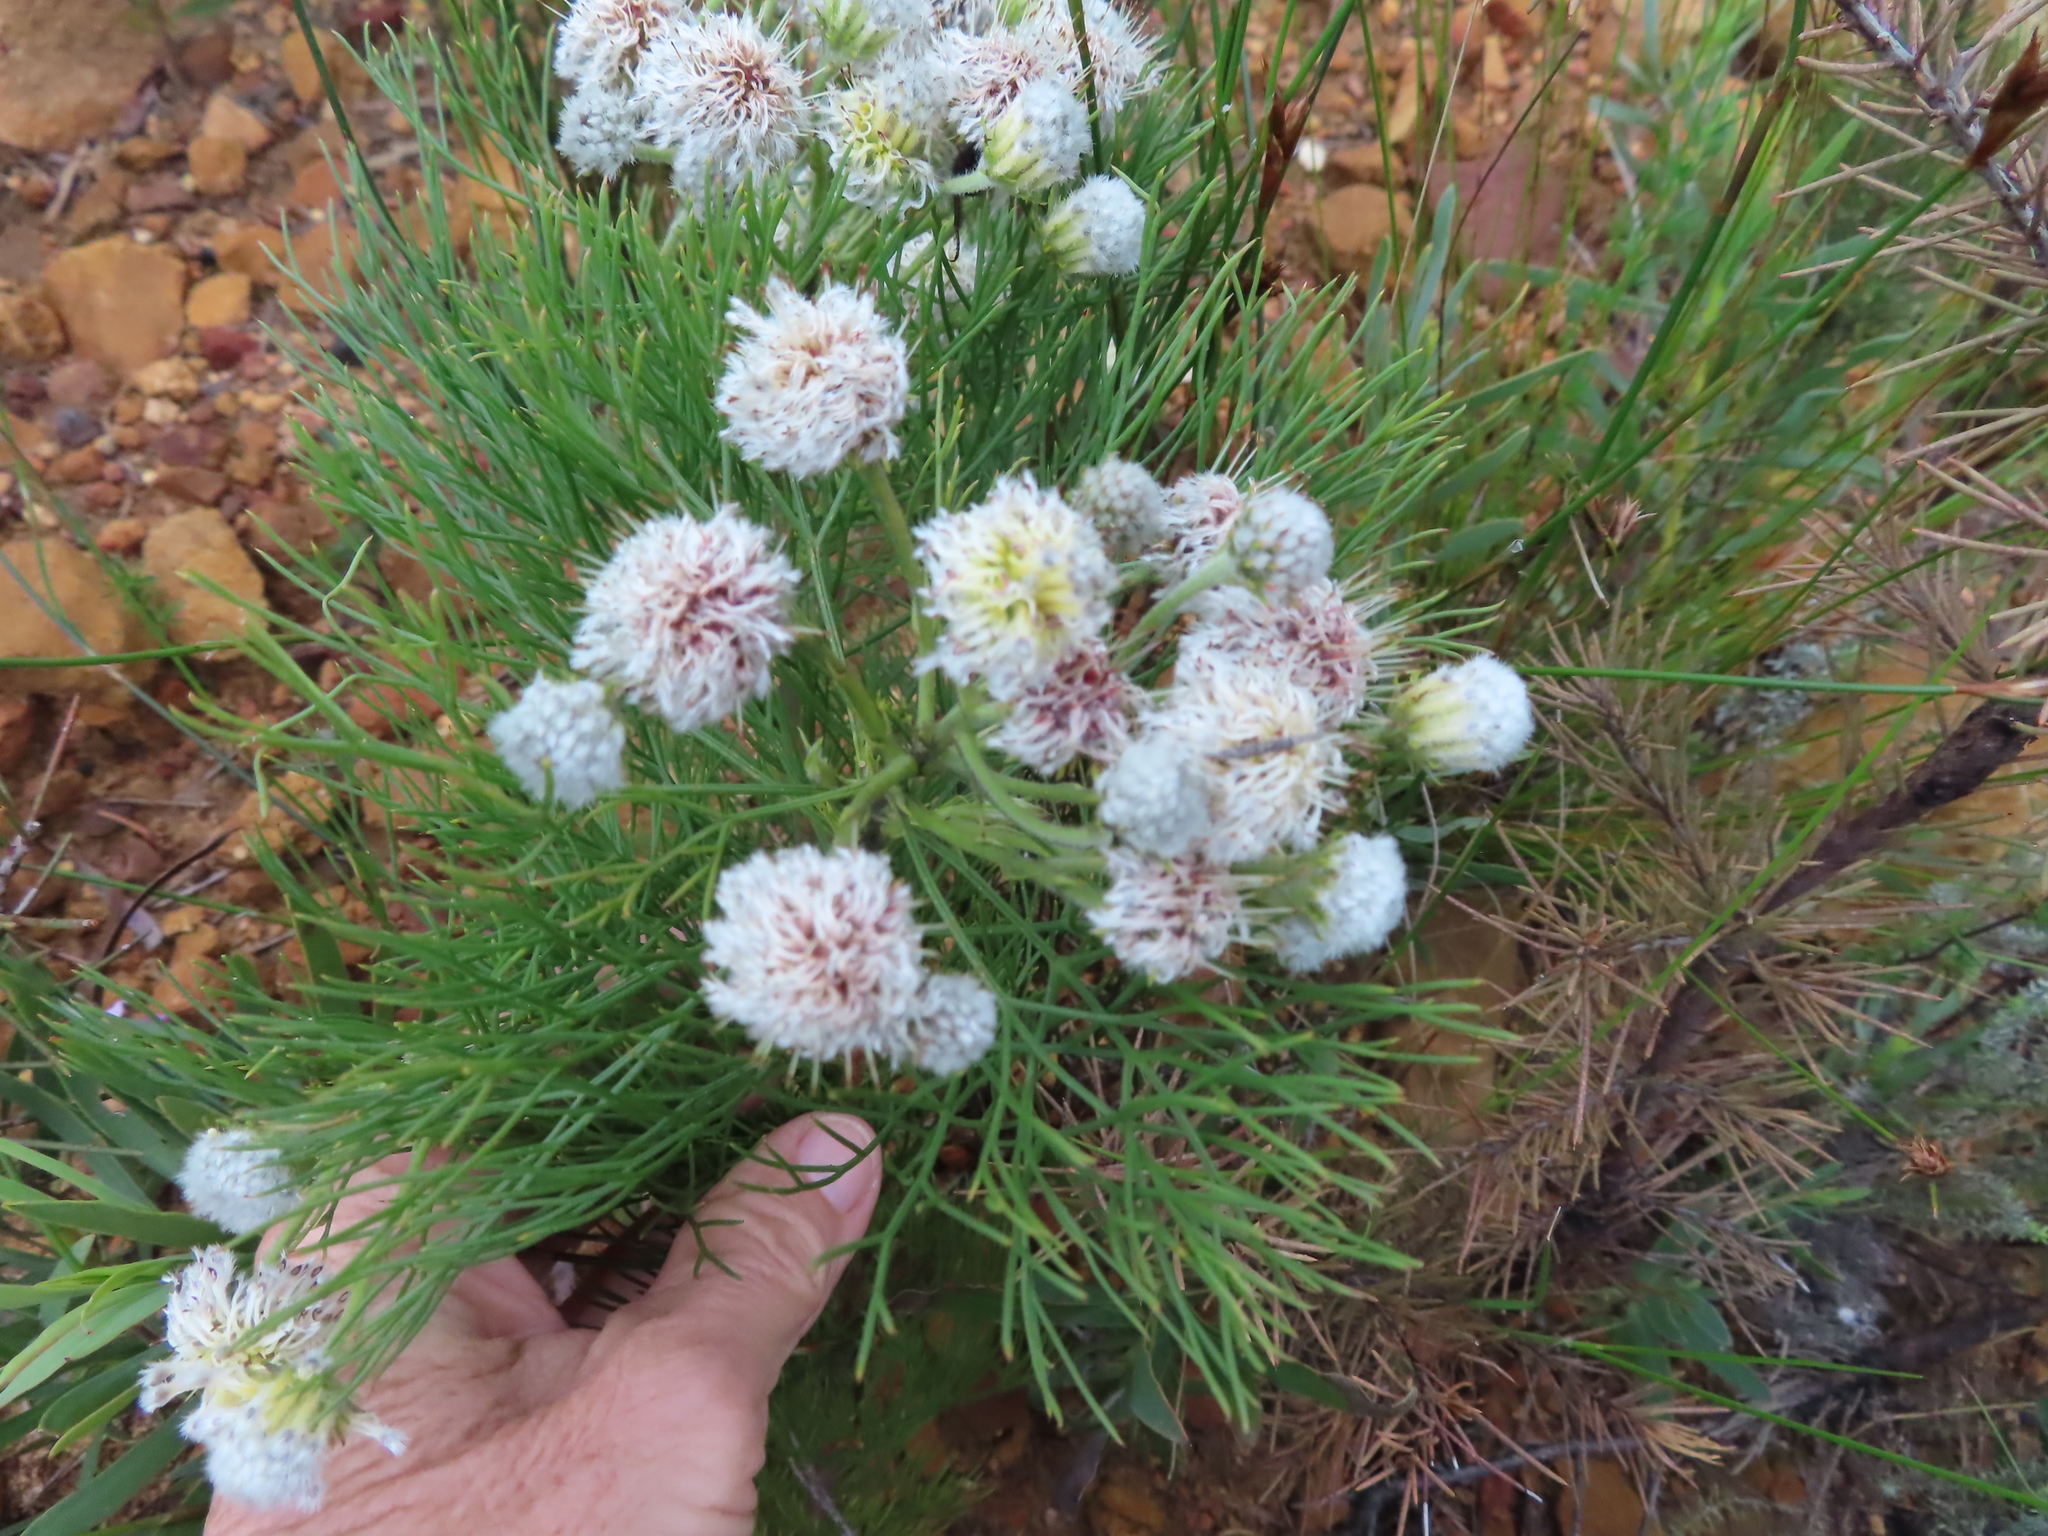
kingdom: Plantae
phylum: Tracheophyta
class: Magnoliopsida
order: Proteales
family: Proteaceae
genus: Serruria
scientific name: Serruria kraussii
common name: Snowball spiderhead
